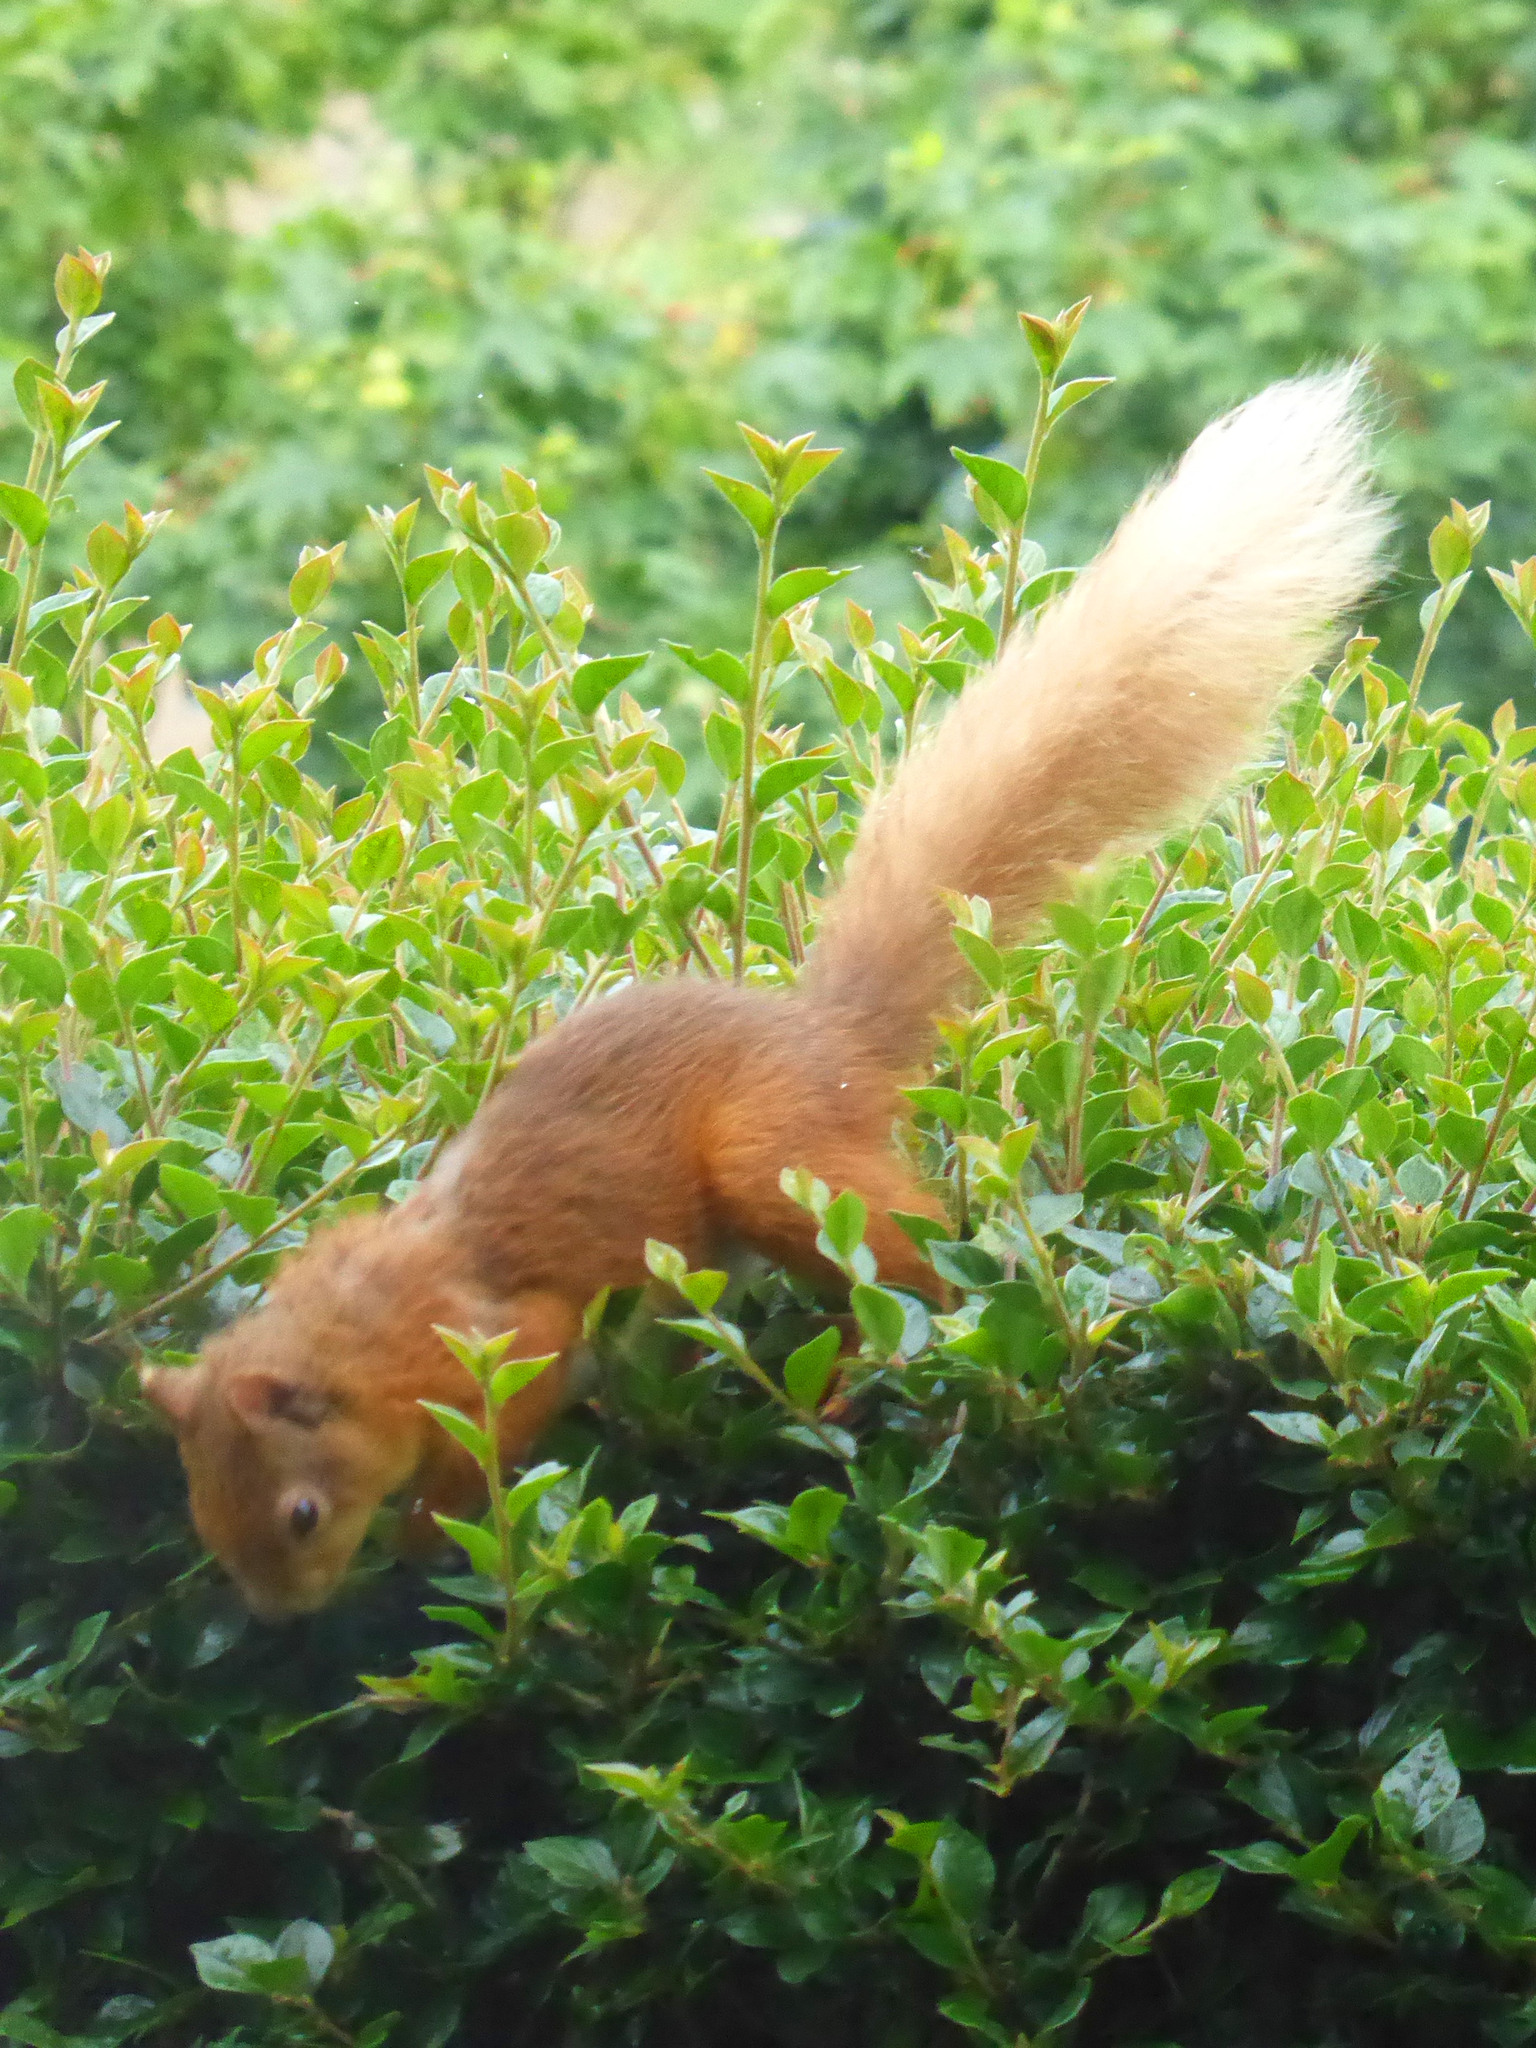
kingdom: Animalia
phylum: Chordata
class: Mammalia
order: Rodentia
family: Sciuridae
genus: Sciurus
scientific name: Sciurus vulgaris
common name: Eurasian red squirrel
